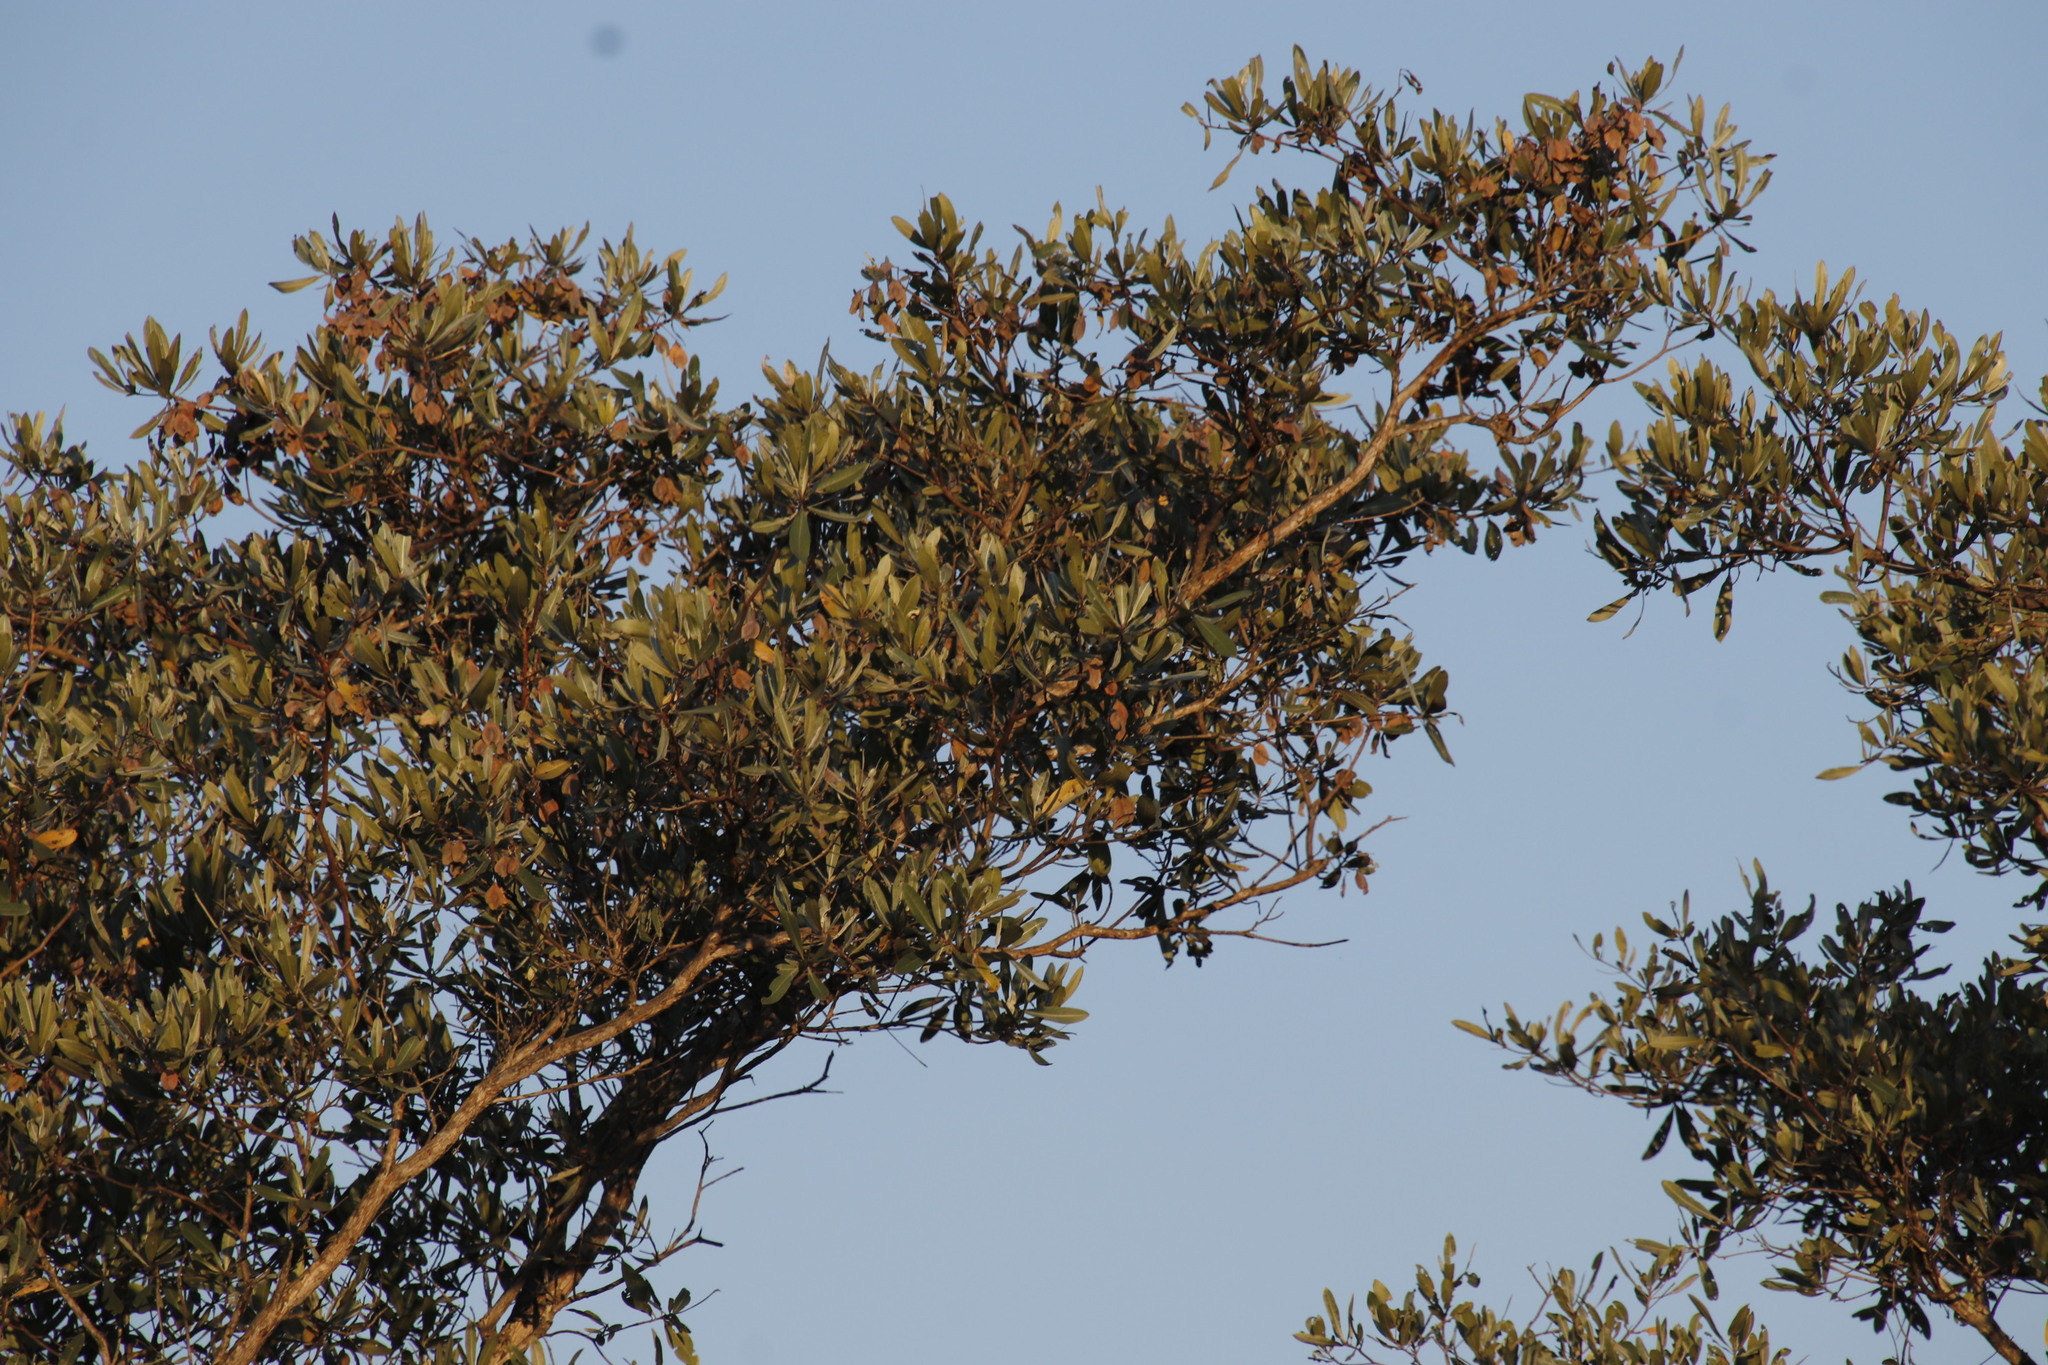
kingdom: Plantae
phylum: Tracheophyta
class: Magnoliopsida
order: Myrtales
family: Combretaceae
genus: Terminalia
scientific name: Terminalia sericea
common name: Clusterleaf
